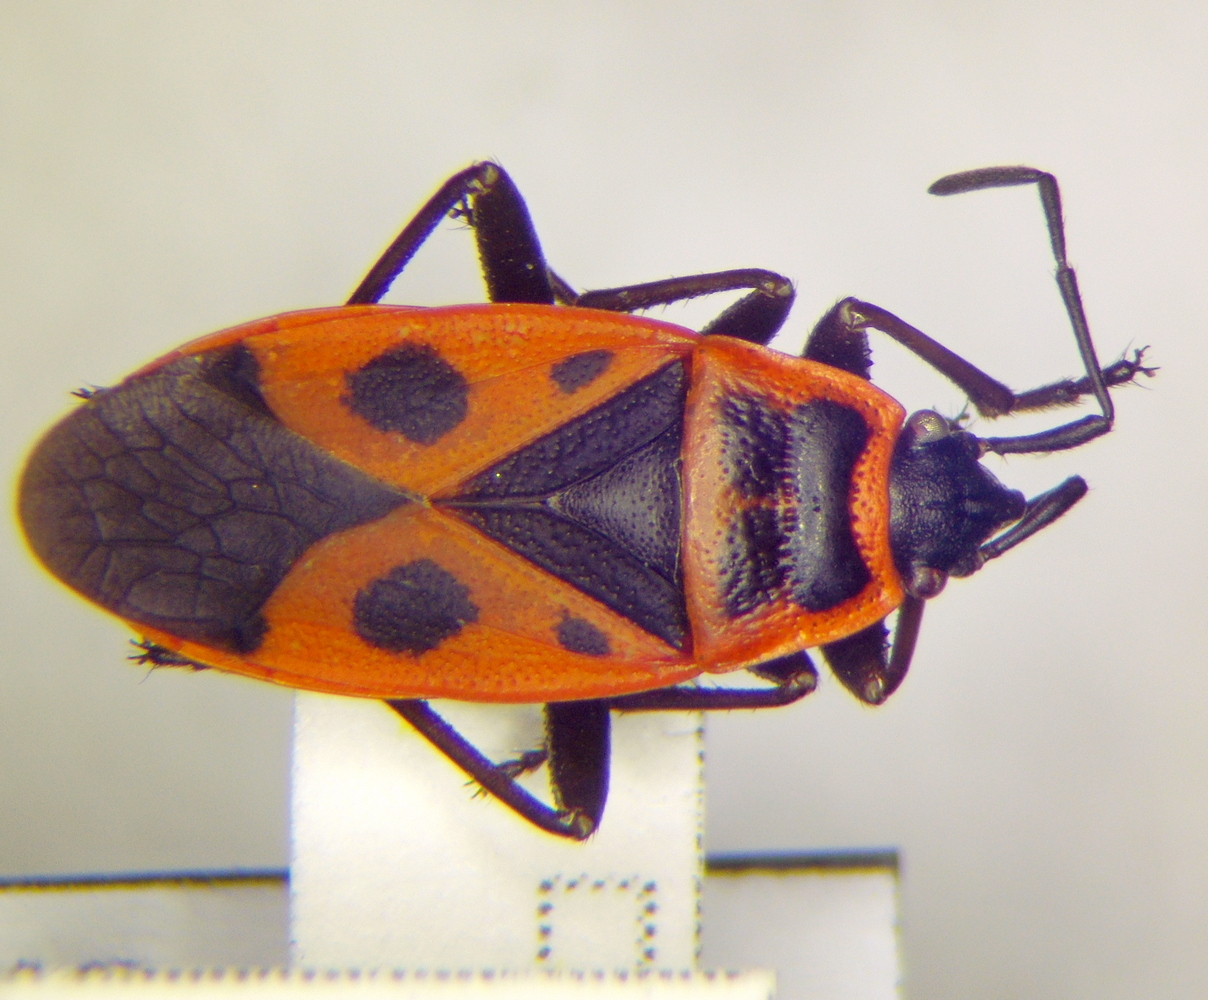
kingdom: Animalia
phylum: Arthropoda
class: Insecta
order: Hemiptera
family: Pyrrhocoridae
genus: Pyrrhocoris
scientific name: Pyrrhocoris apterus
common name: Firebug
